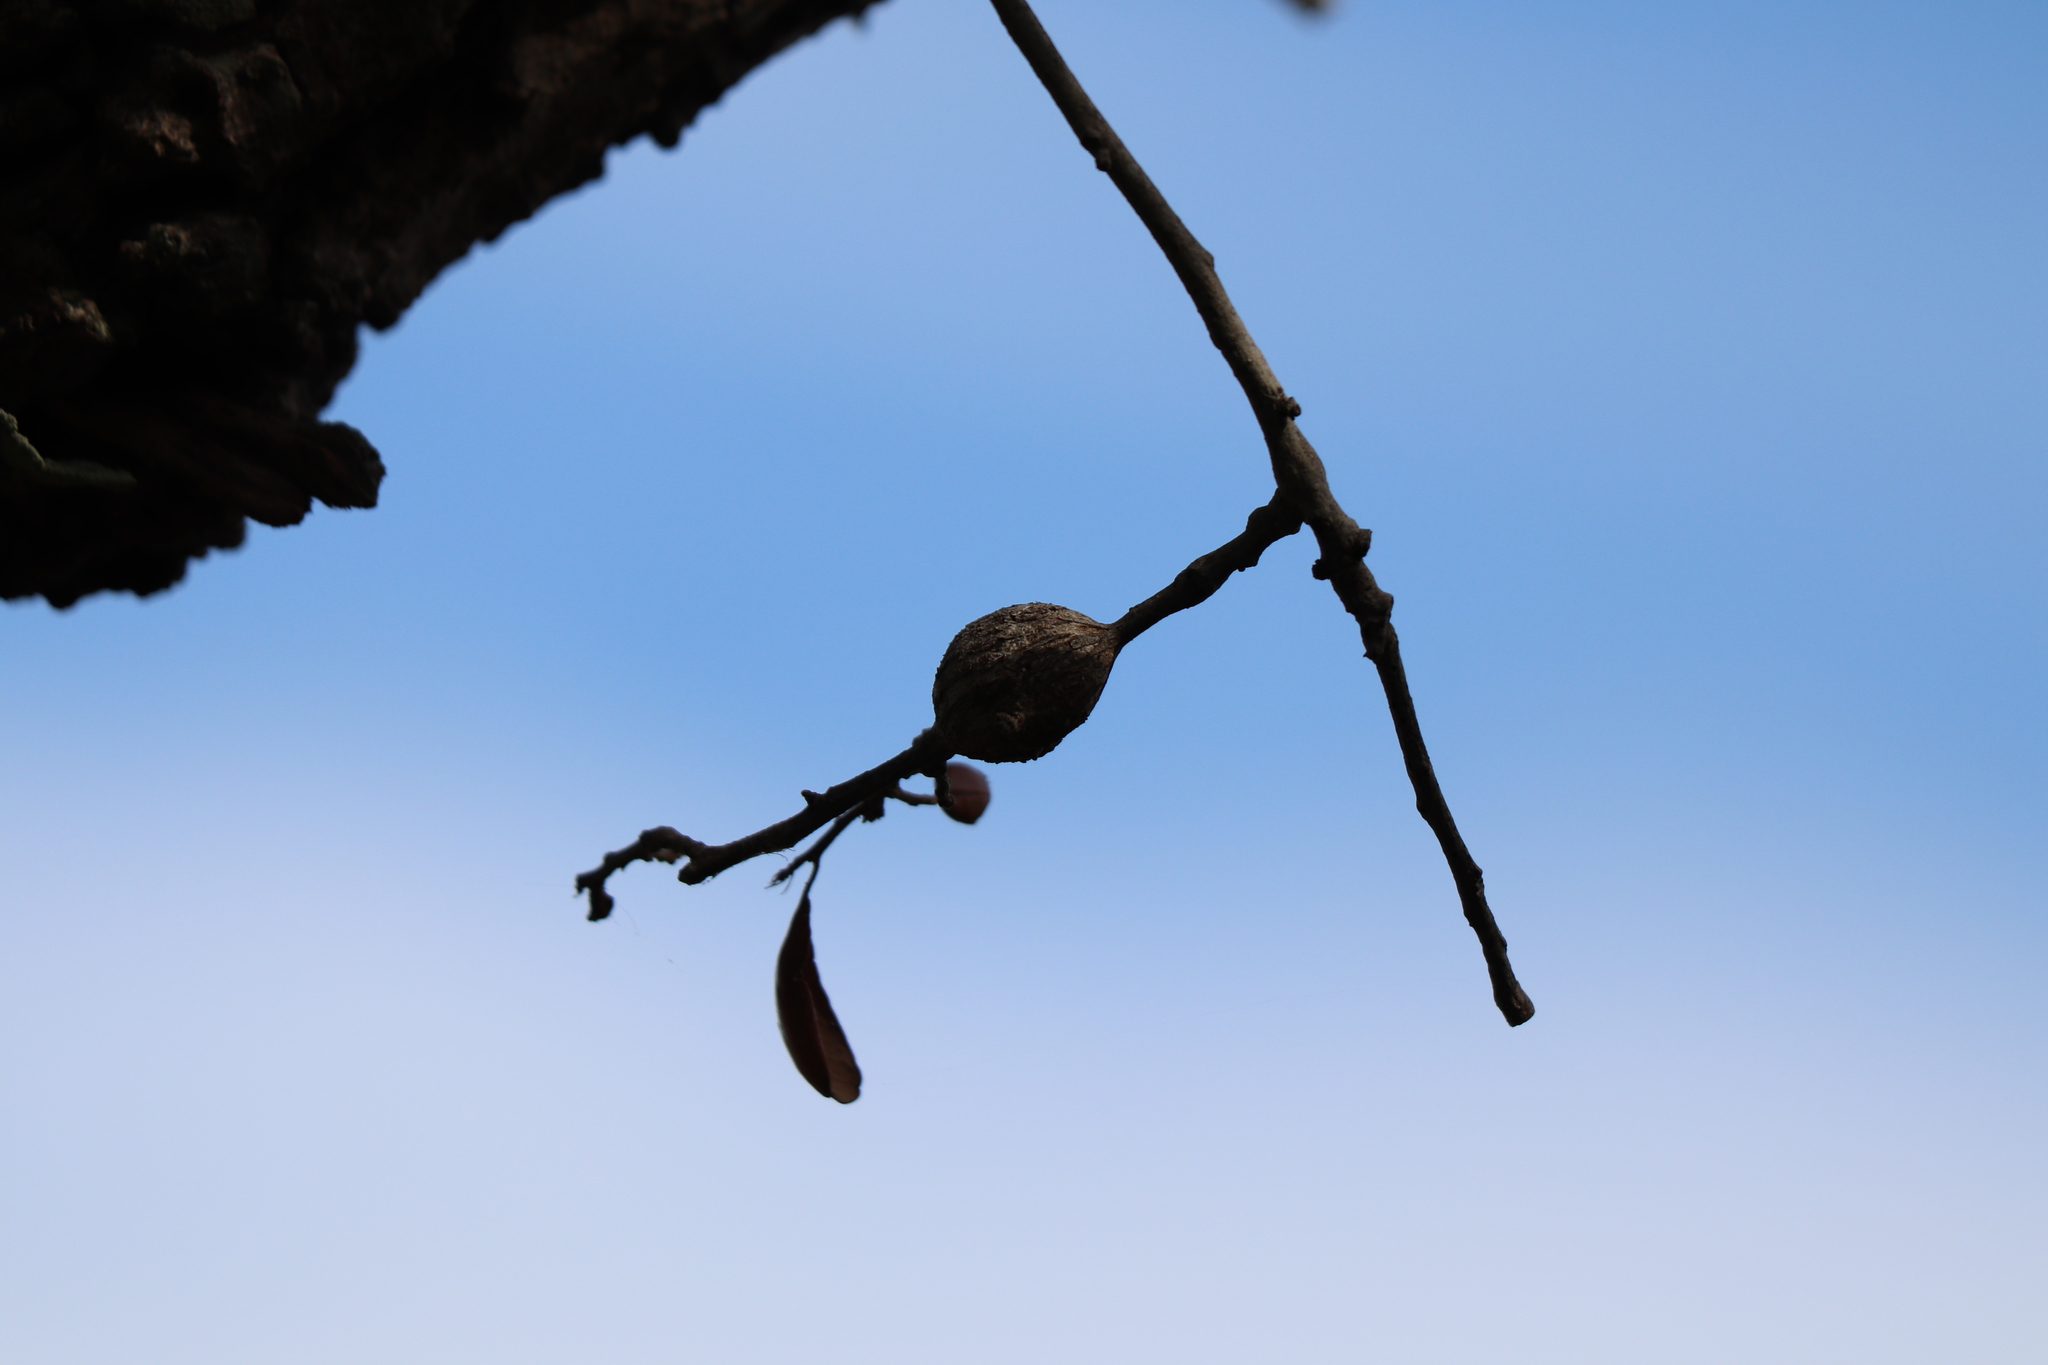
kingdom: Animalia
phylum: Arthropoda
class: Insecta
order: Hymenoptera
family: Cynipidae
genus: Callirhytis
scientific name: Callirhytis
